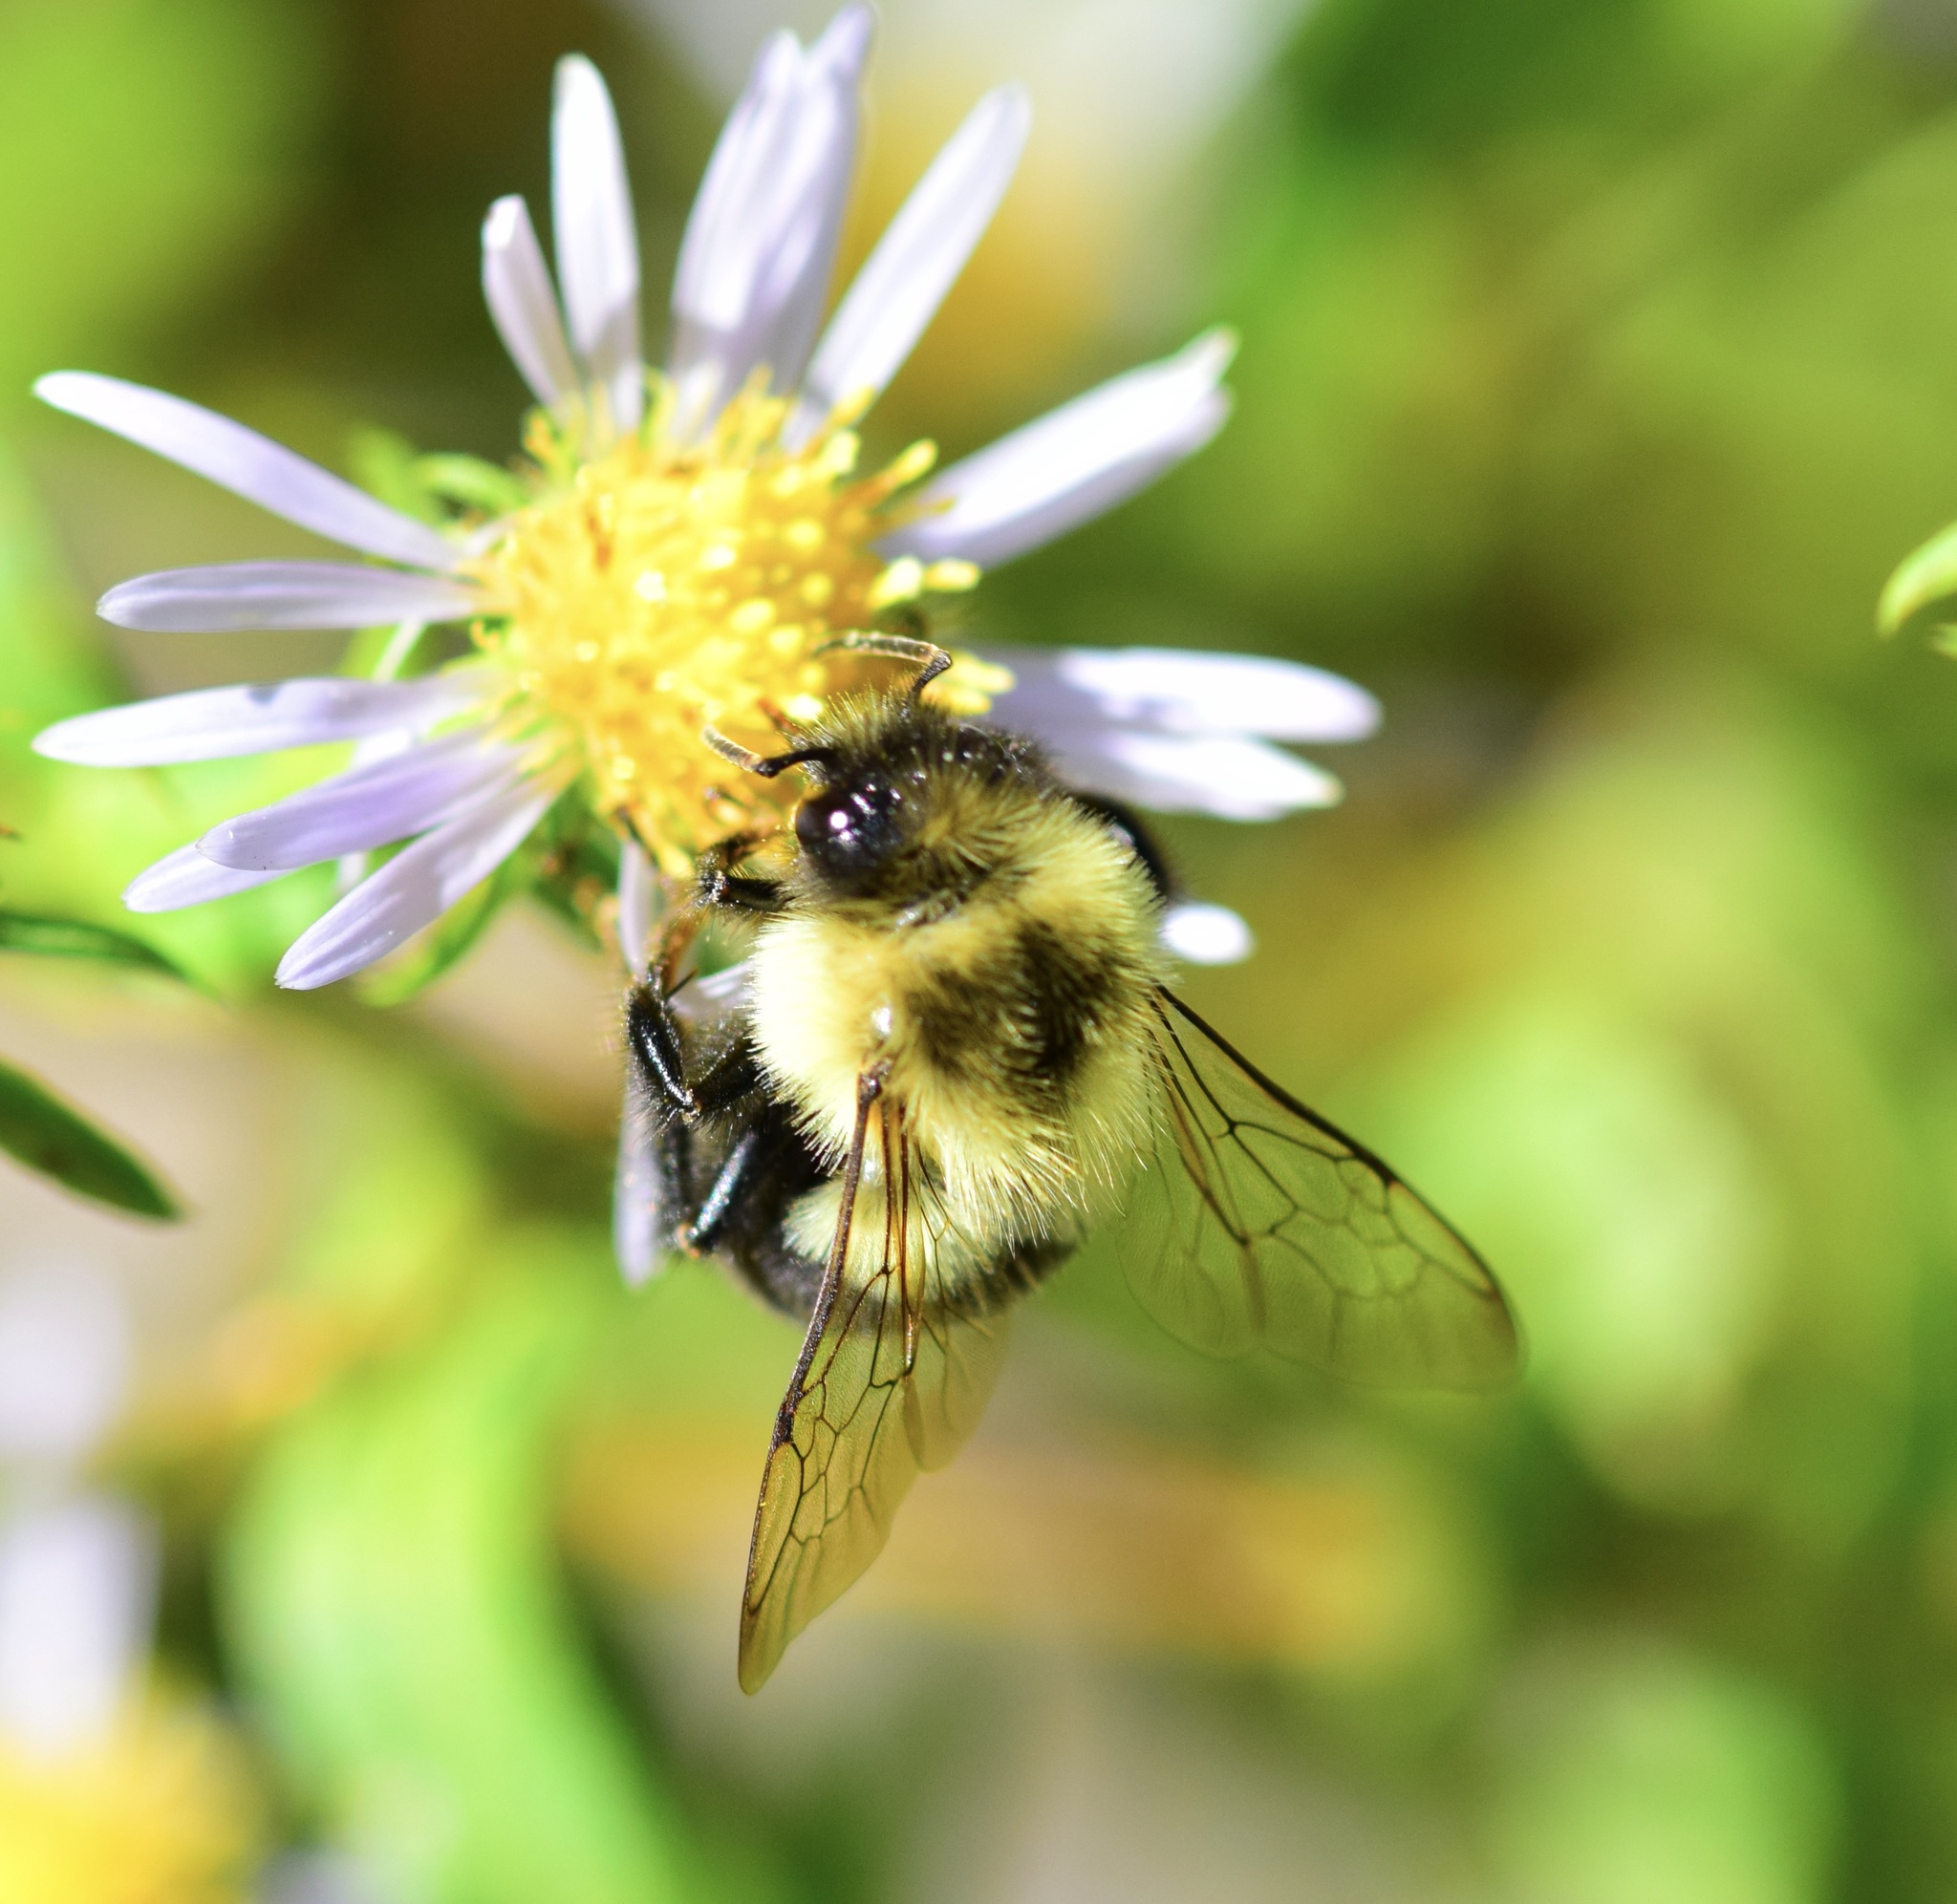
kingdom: Animalia
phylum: Arthropoda
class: Insecta
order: Hymenoptera
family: Apidae
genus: Bombus
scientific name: Bombus impatiens
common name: Common eastern bumble bee
